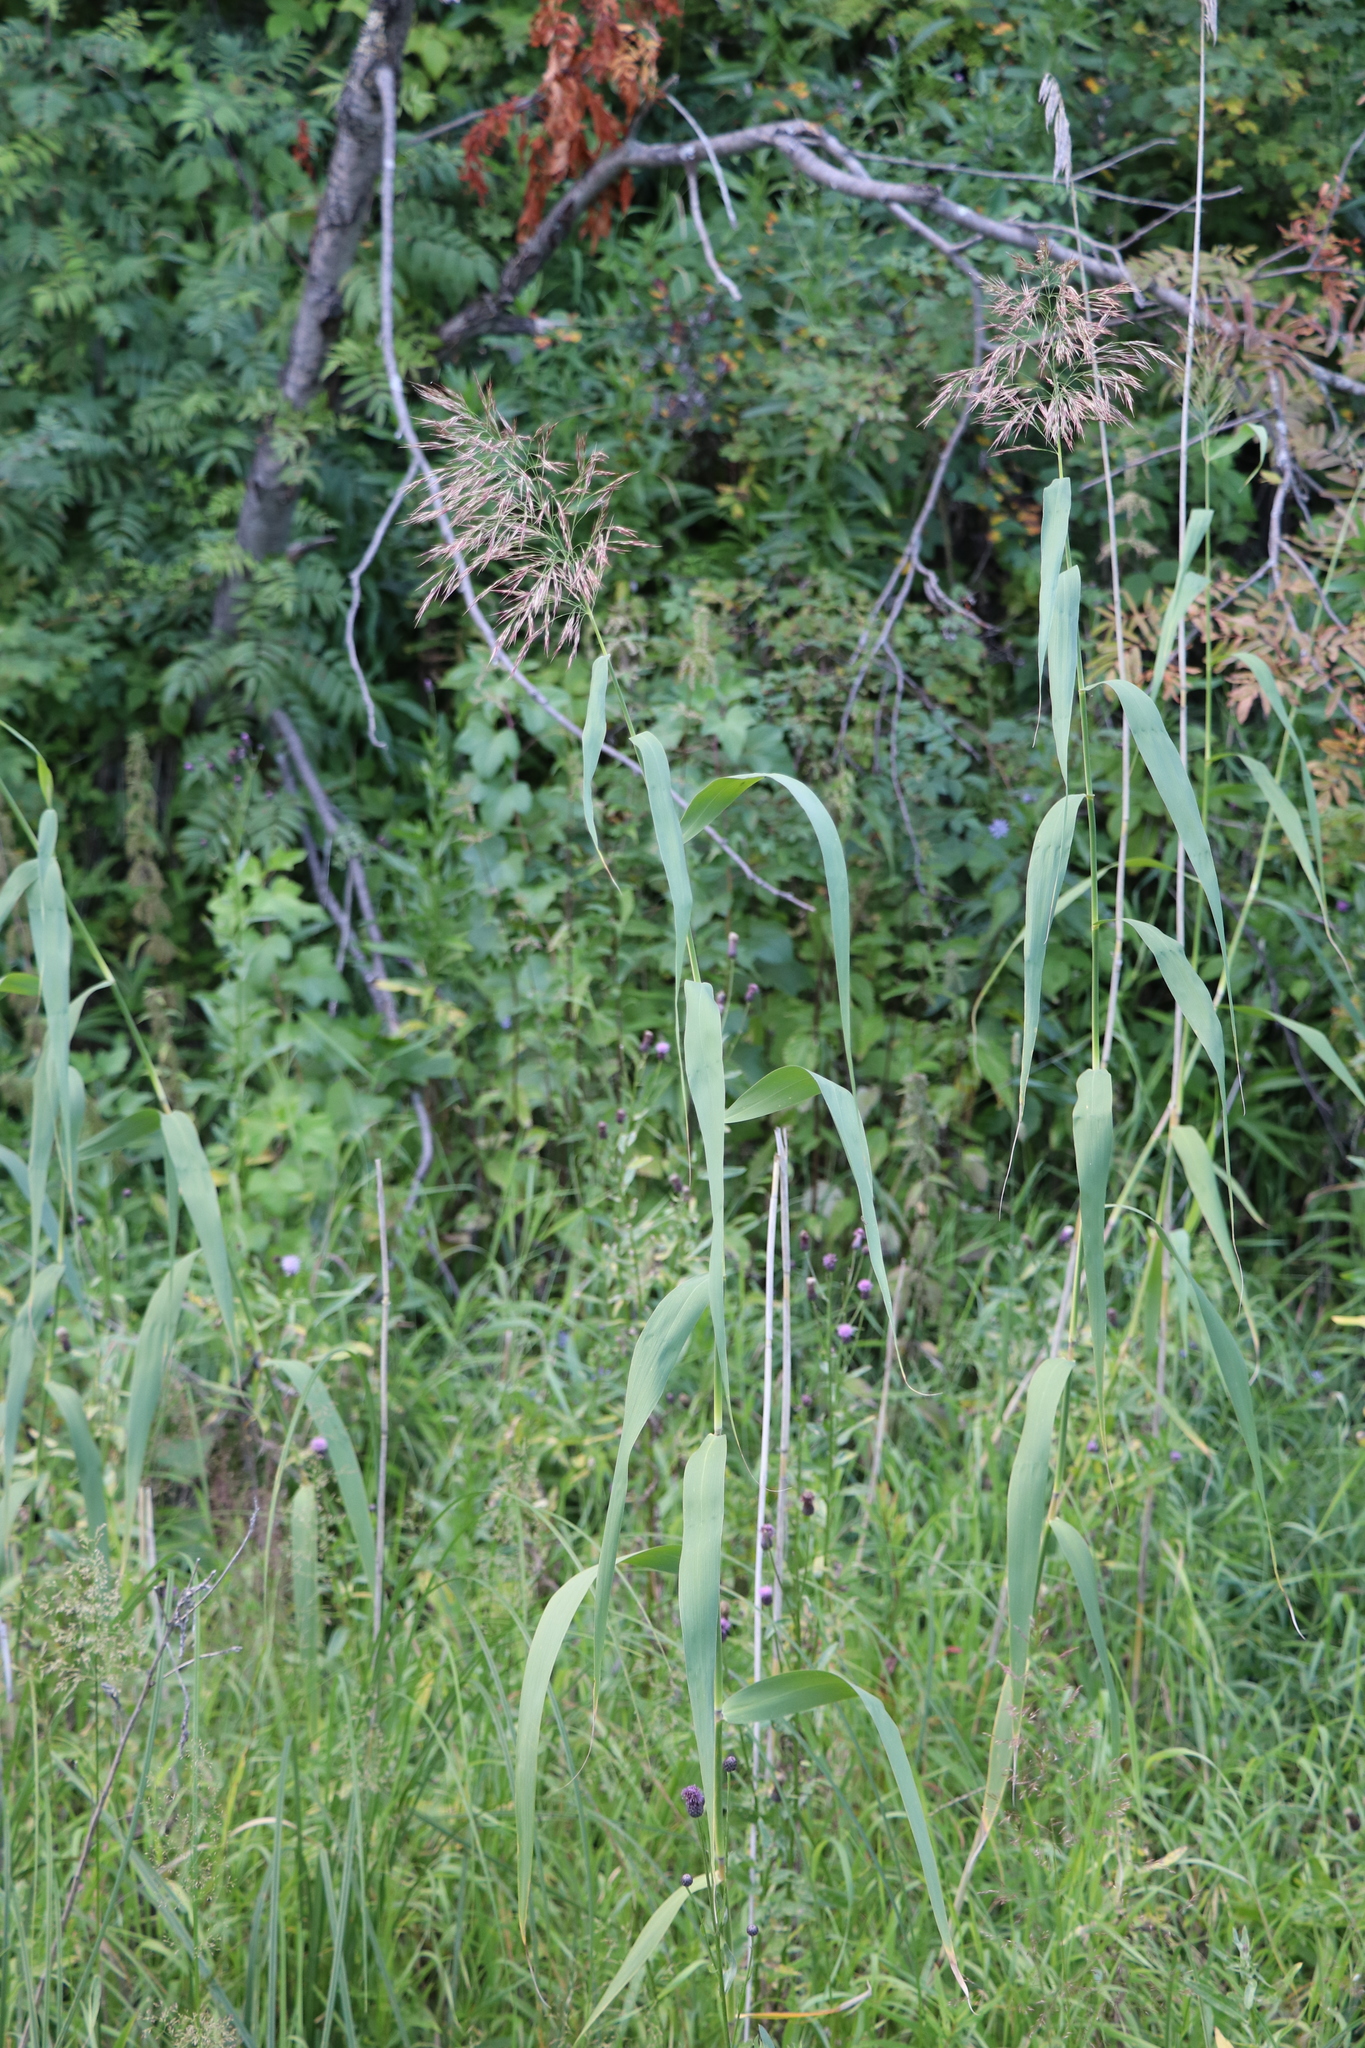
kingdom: Plantae
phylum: Tracheophyta
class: Liliopsida
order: Poales
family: Poaceae
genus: Phragmites
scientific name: Phragmites australis
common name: Common reed
